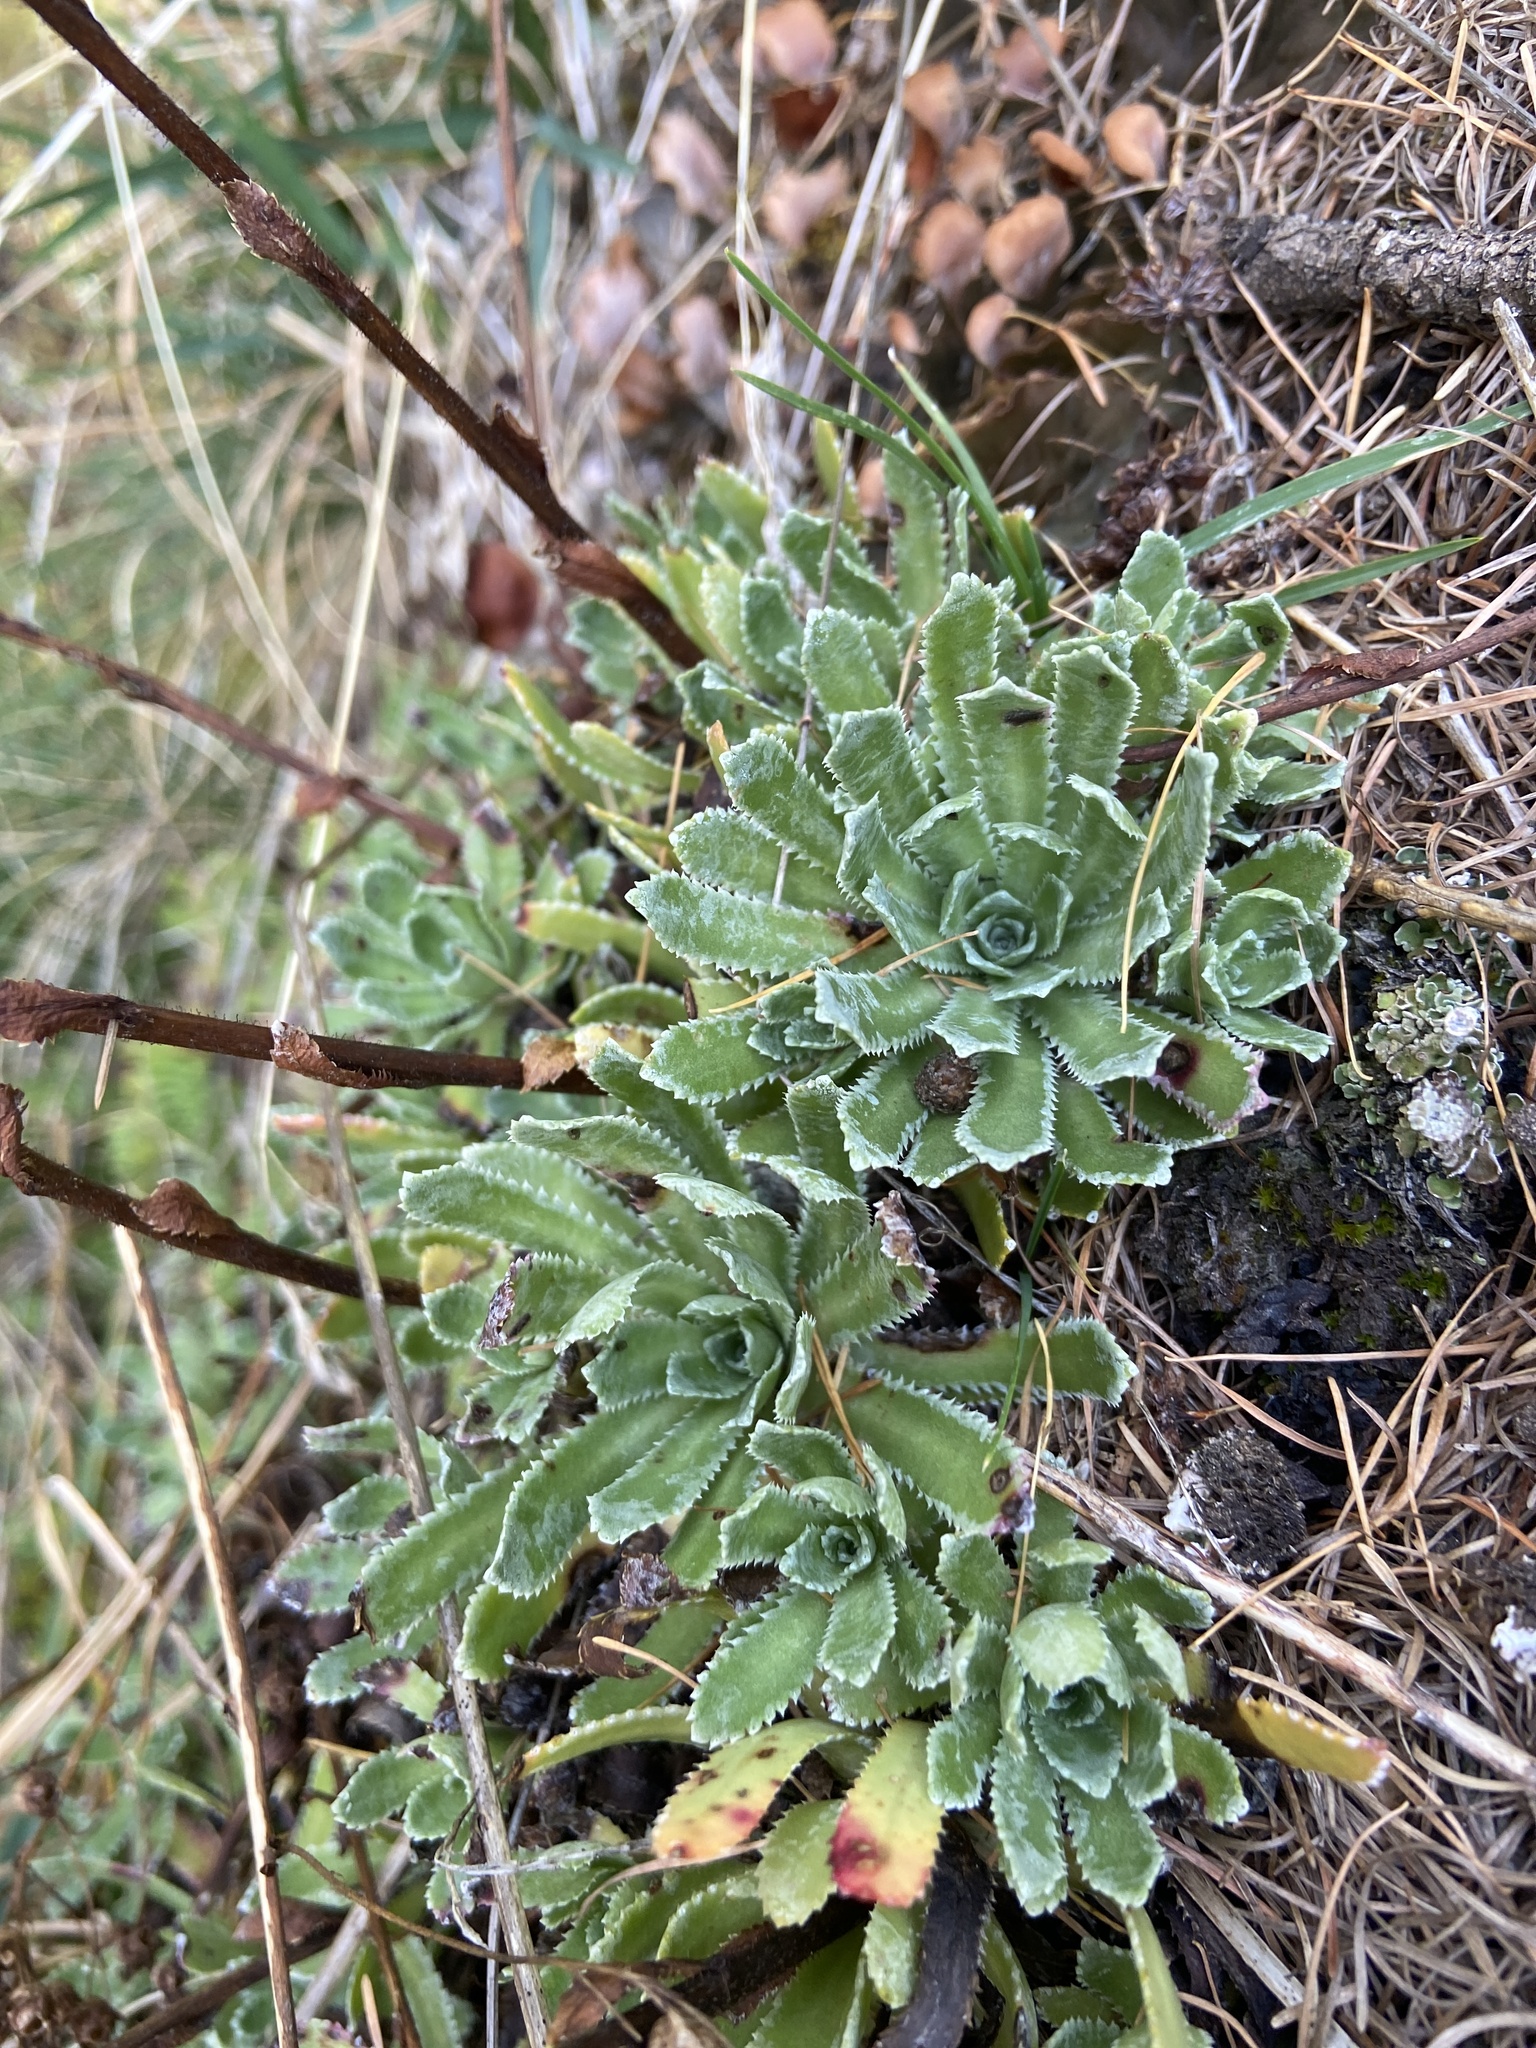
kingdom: Plantae
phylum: Tracheophyta
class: Magnoliopsida
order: Saxifragales
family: Saxifragaceae
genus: Saxifraga
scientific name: Saxifraga paniculata
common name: Livelong saxifrage
